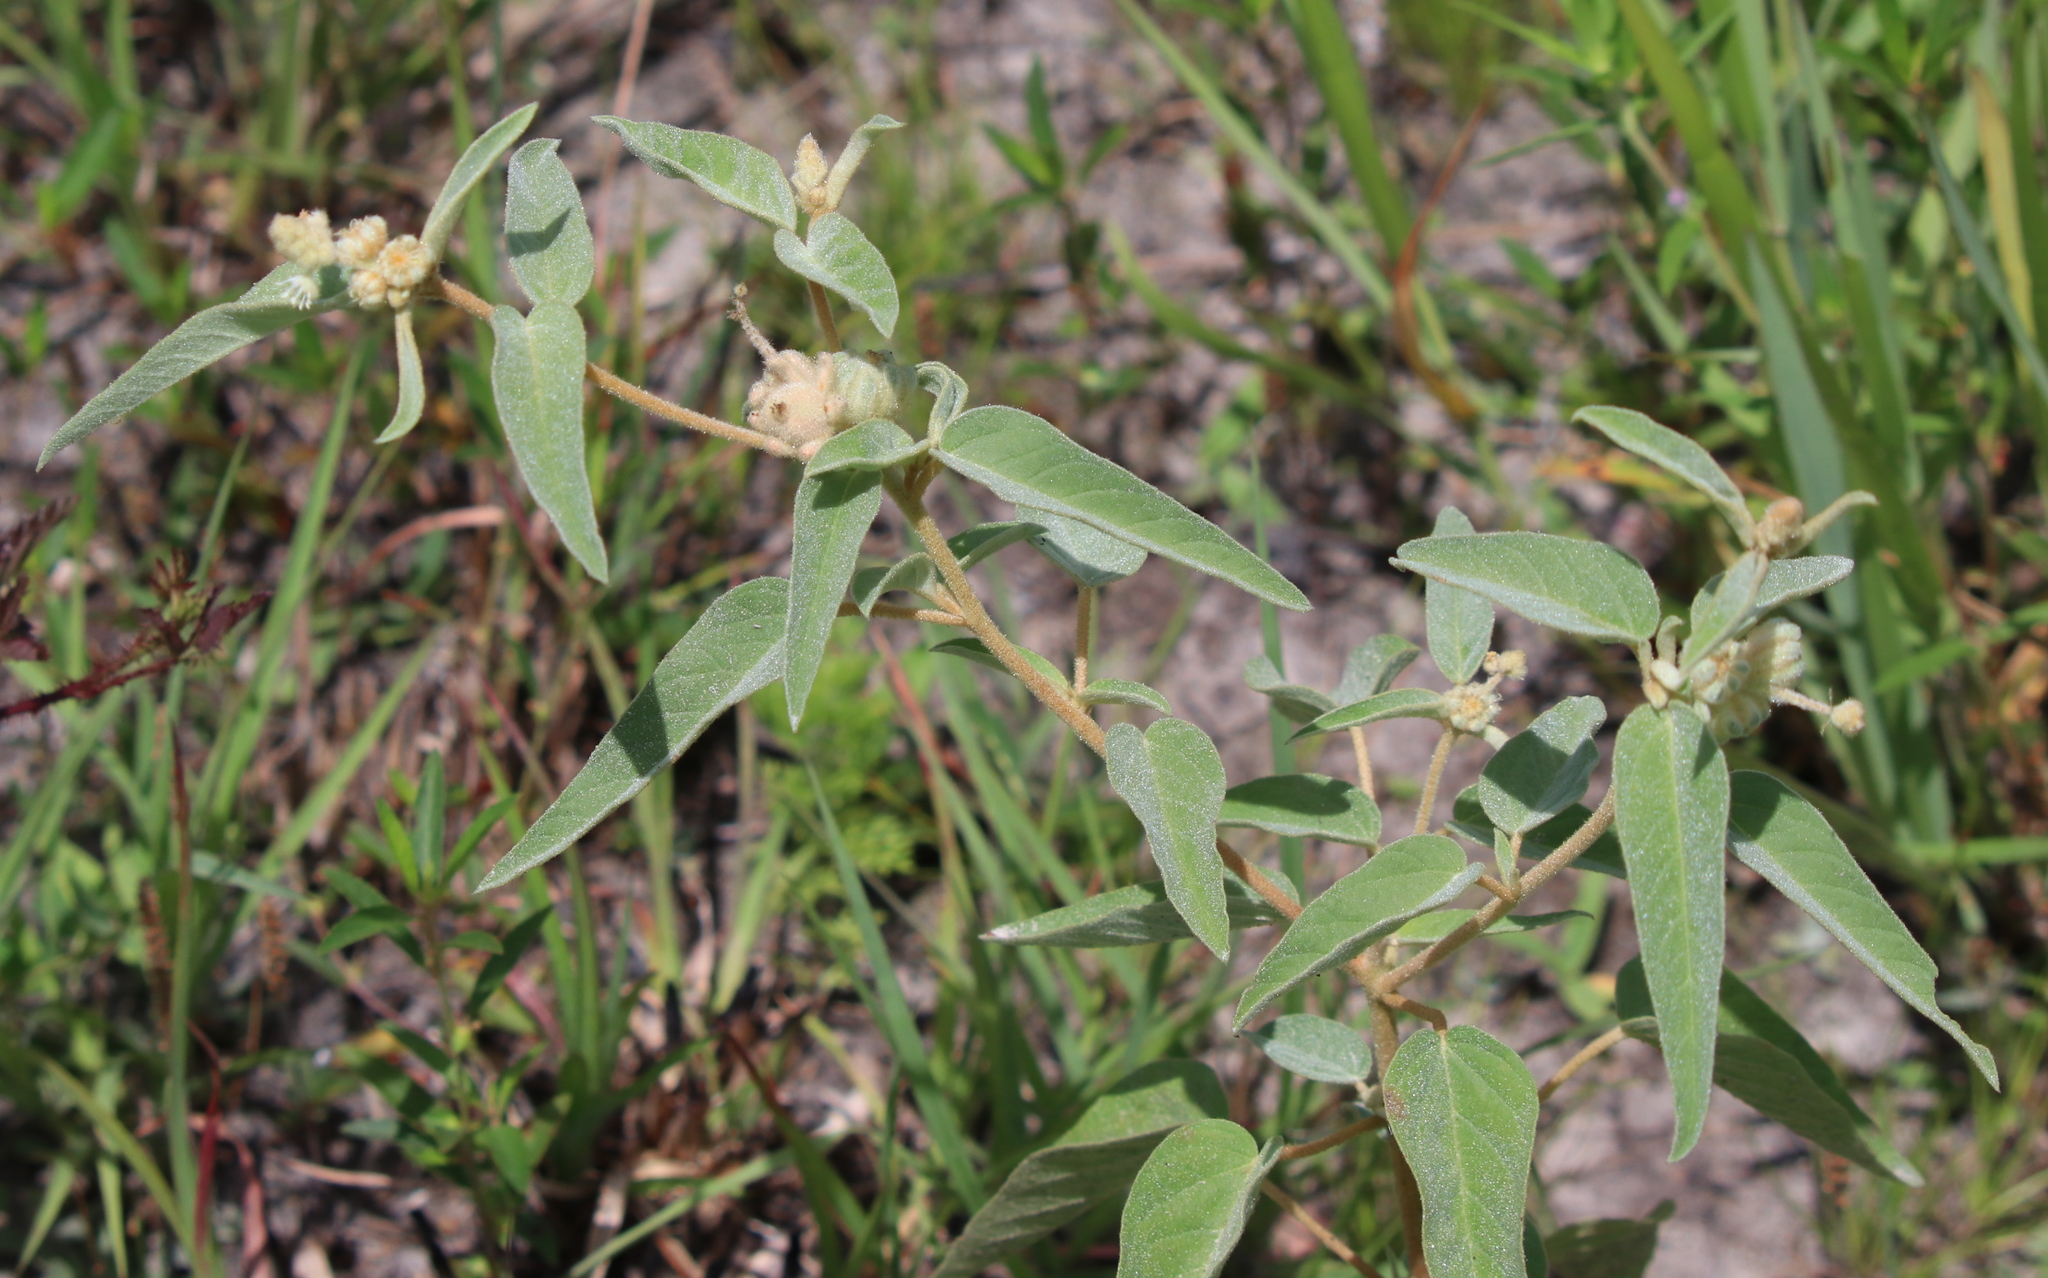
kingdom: Plantae
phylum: Tracheophyta
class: Magnoliopsida
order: Malpighiales
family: Euphorbiaceae
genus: Croton
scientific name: Croton lindheimeri
